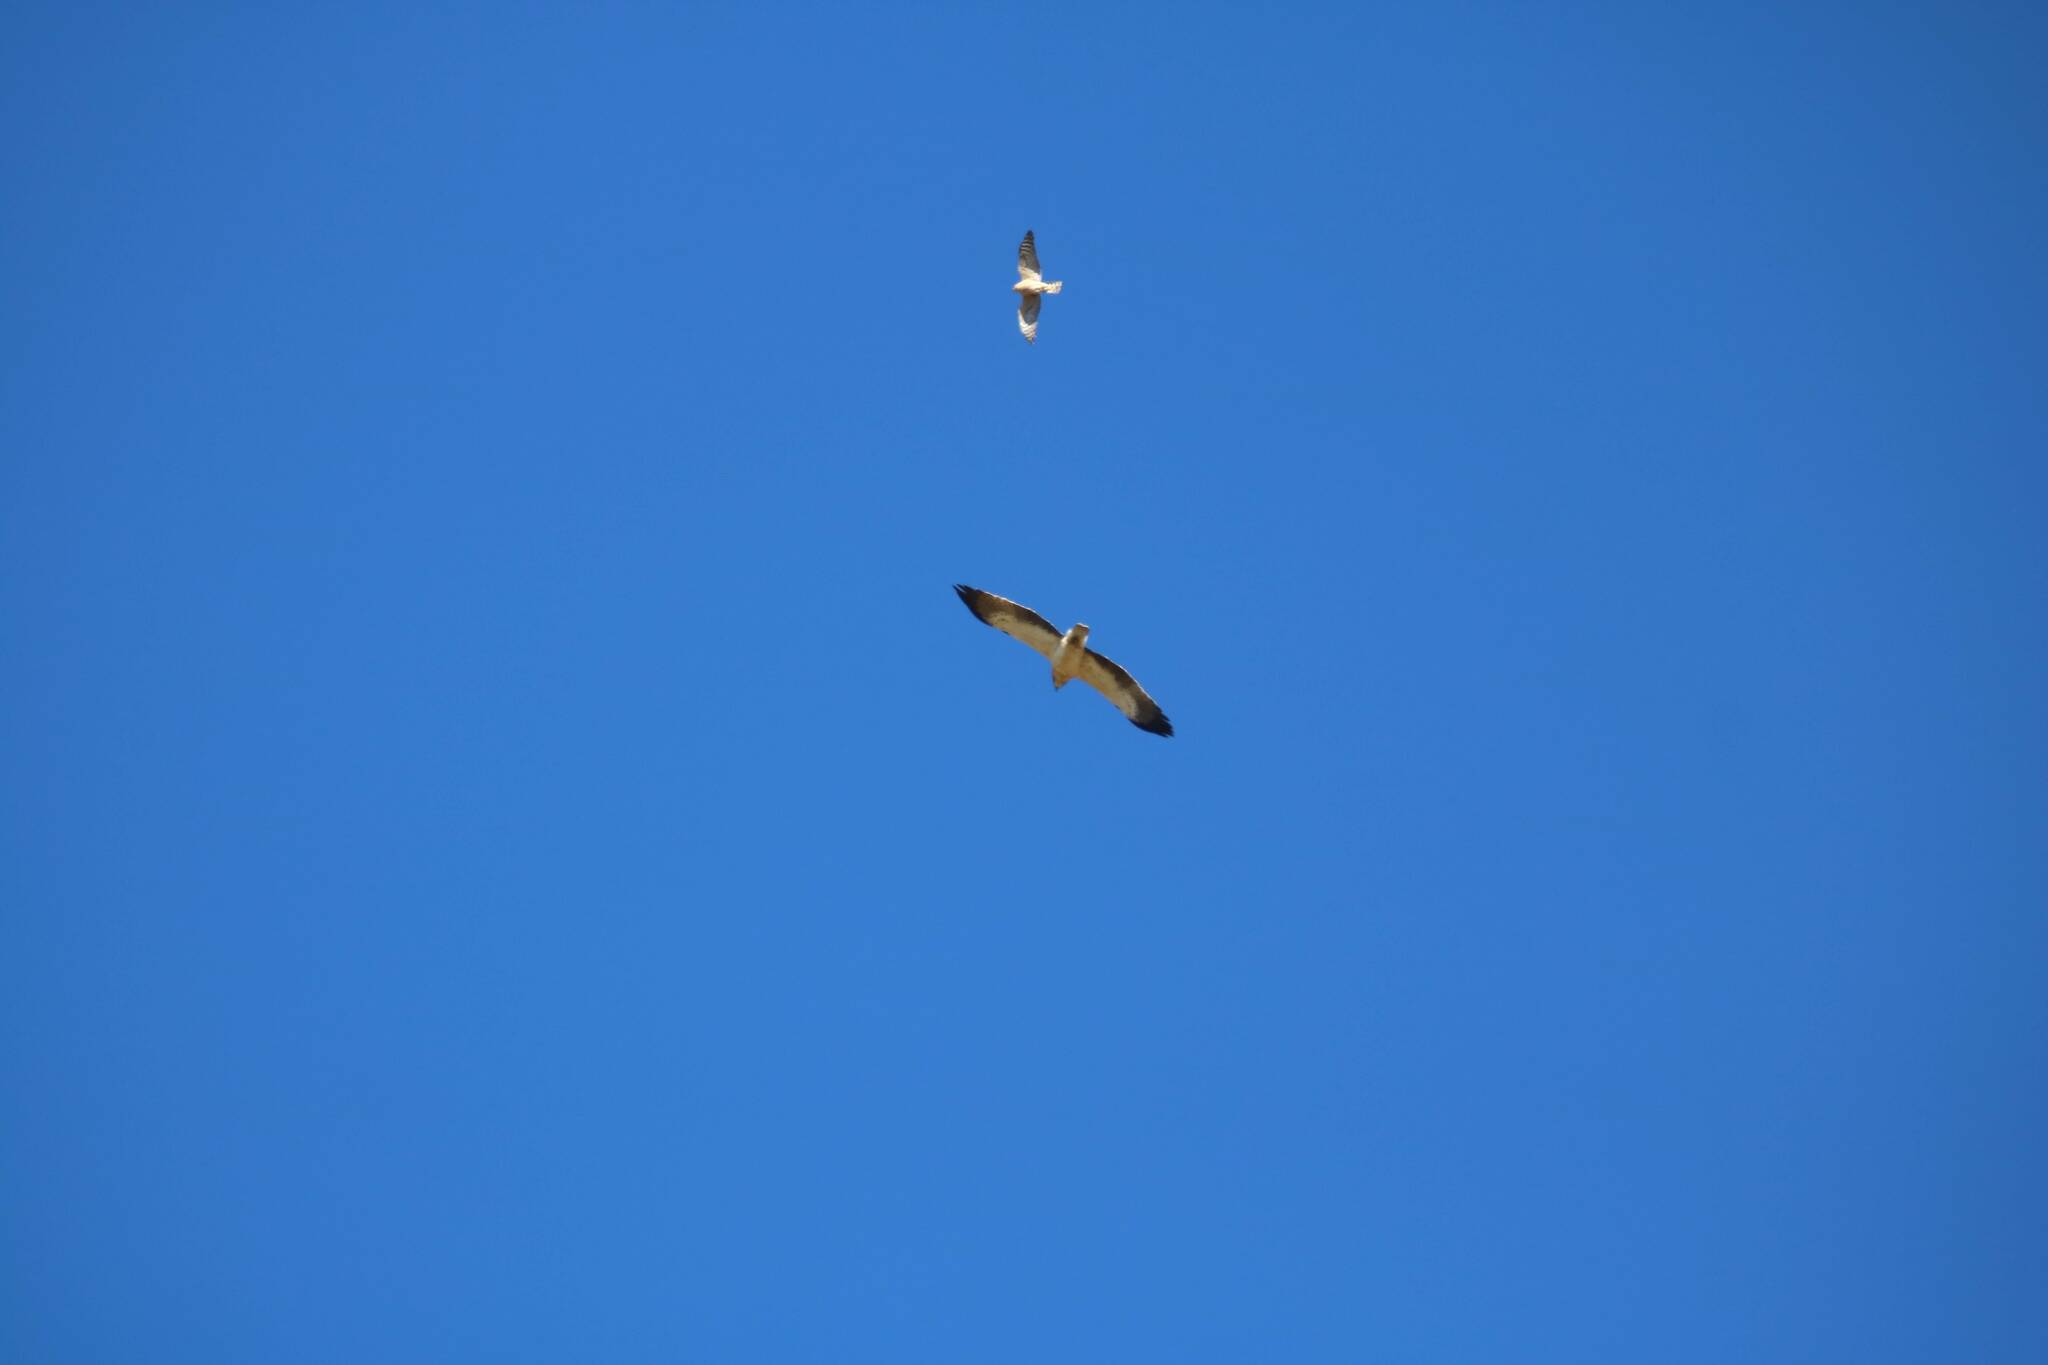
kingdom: Animalia
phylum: Chordata
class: Aves
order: Accipitriformes
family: Accipitridae
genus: Hieraaetus
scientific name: Hieraaetus pennatus
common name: Booted eagle
